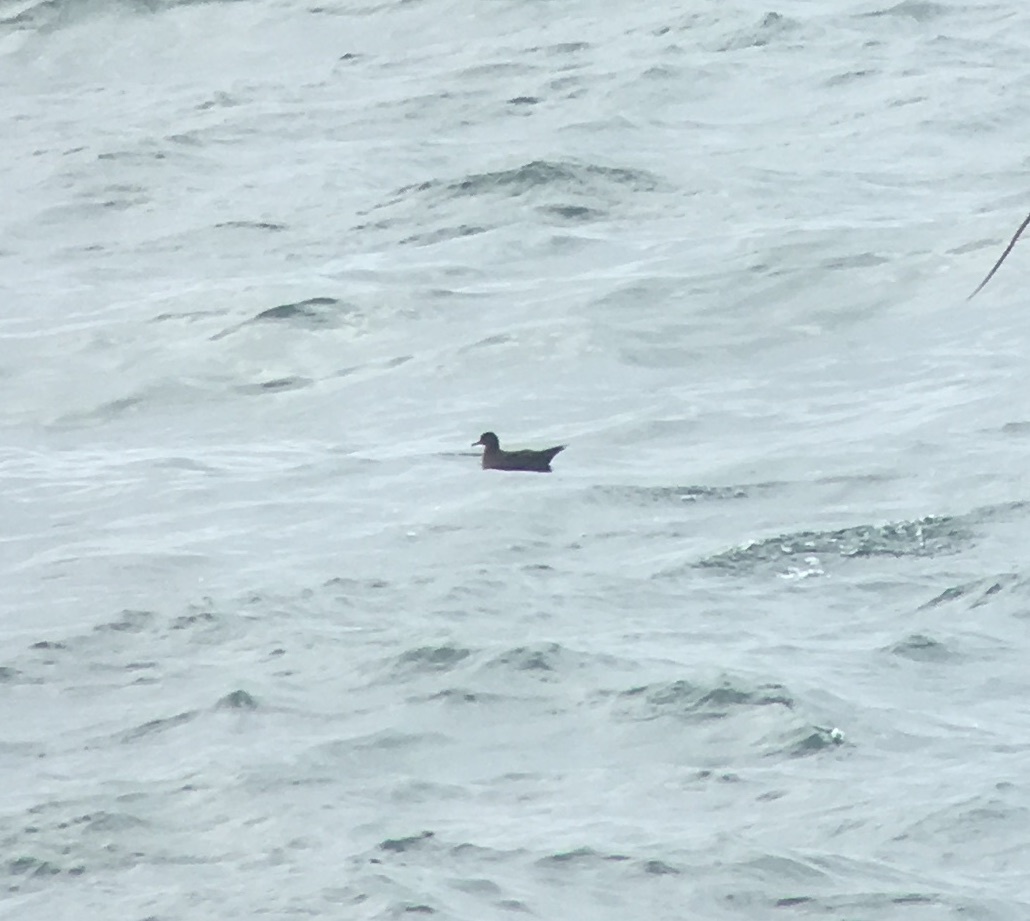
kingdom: Animalia
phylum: Chordata
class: Aves
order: Procellariiformes
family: Procellariidae
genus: Puffinus
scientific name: Puffinus griseus
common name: Sooty shearwater
